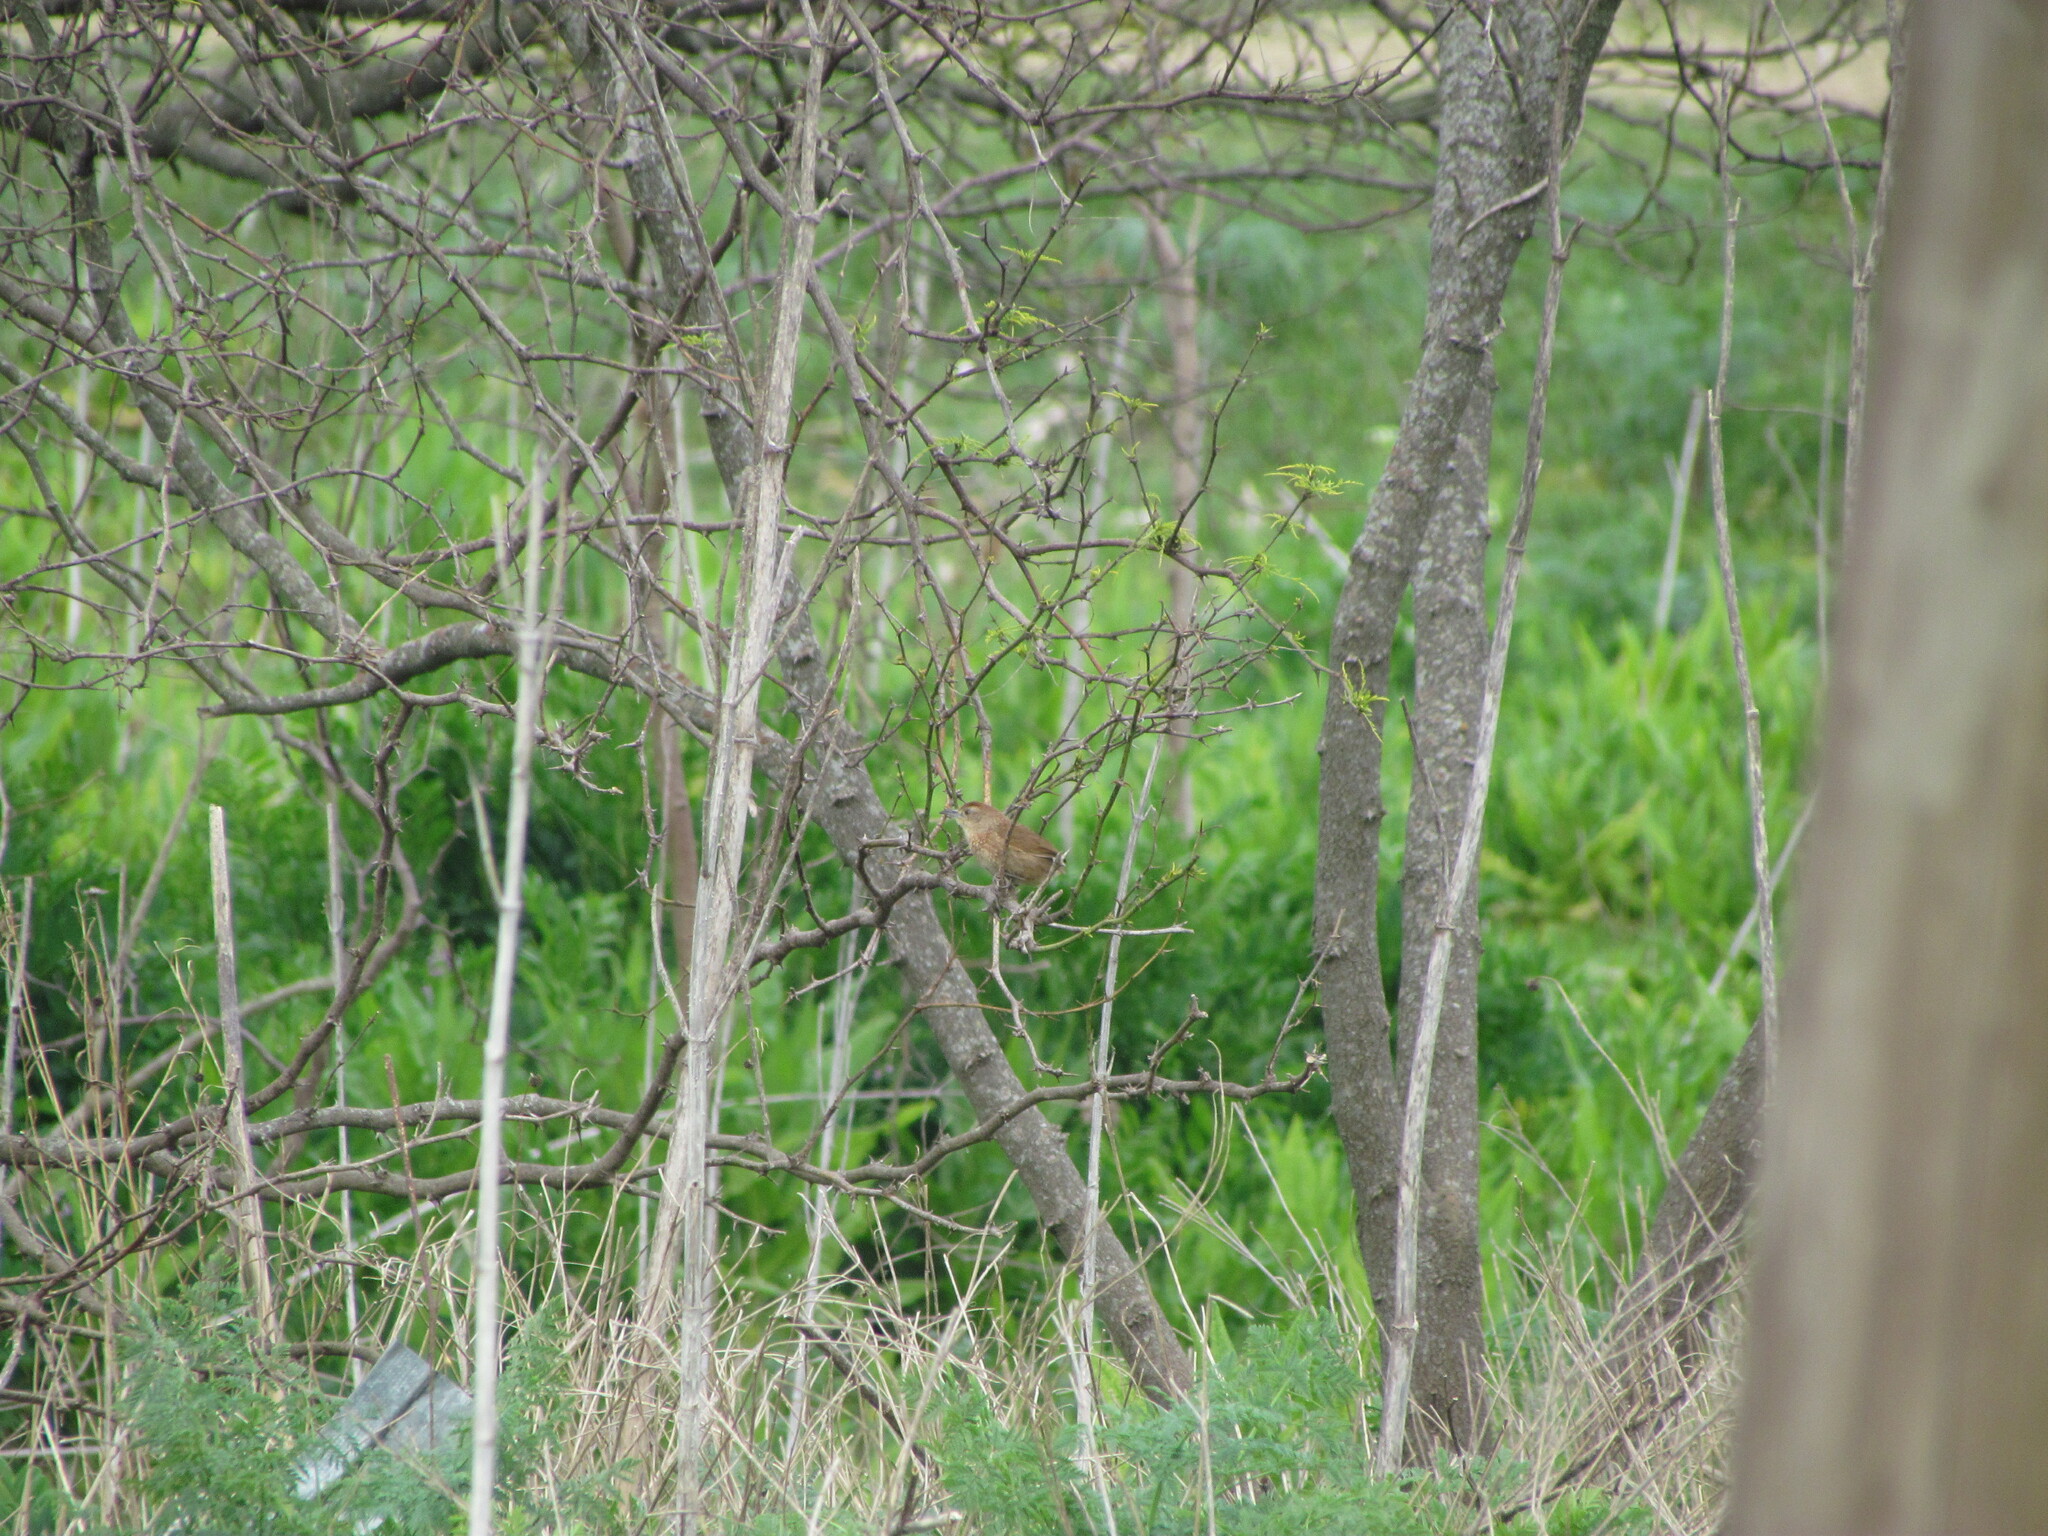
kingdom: Animalia
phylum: Chordata
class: Aves
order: Passeriformes
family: Furnariidae
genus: Phacellodomus
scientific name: Phacellodomus striaticollis
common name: Freckle-breasted thornbird
